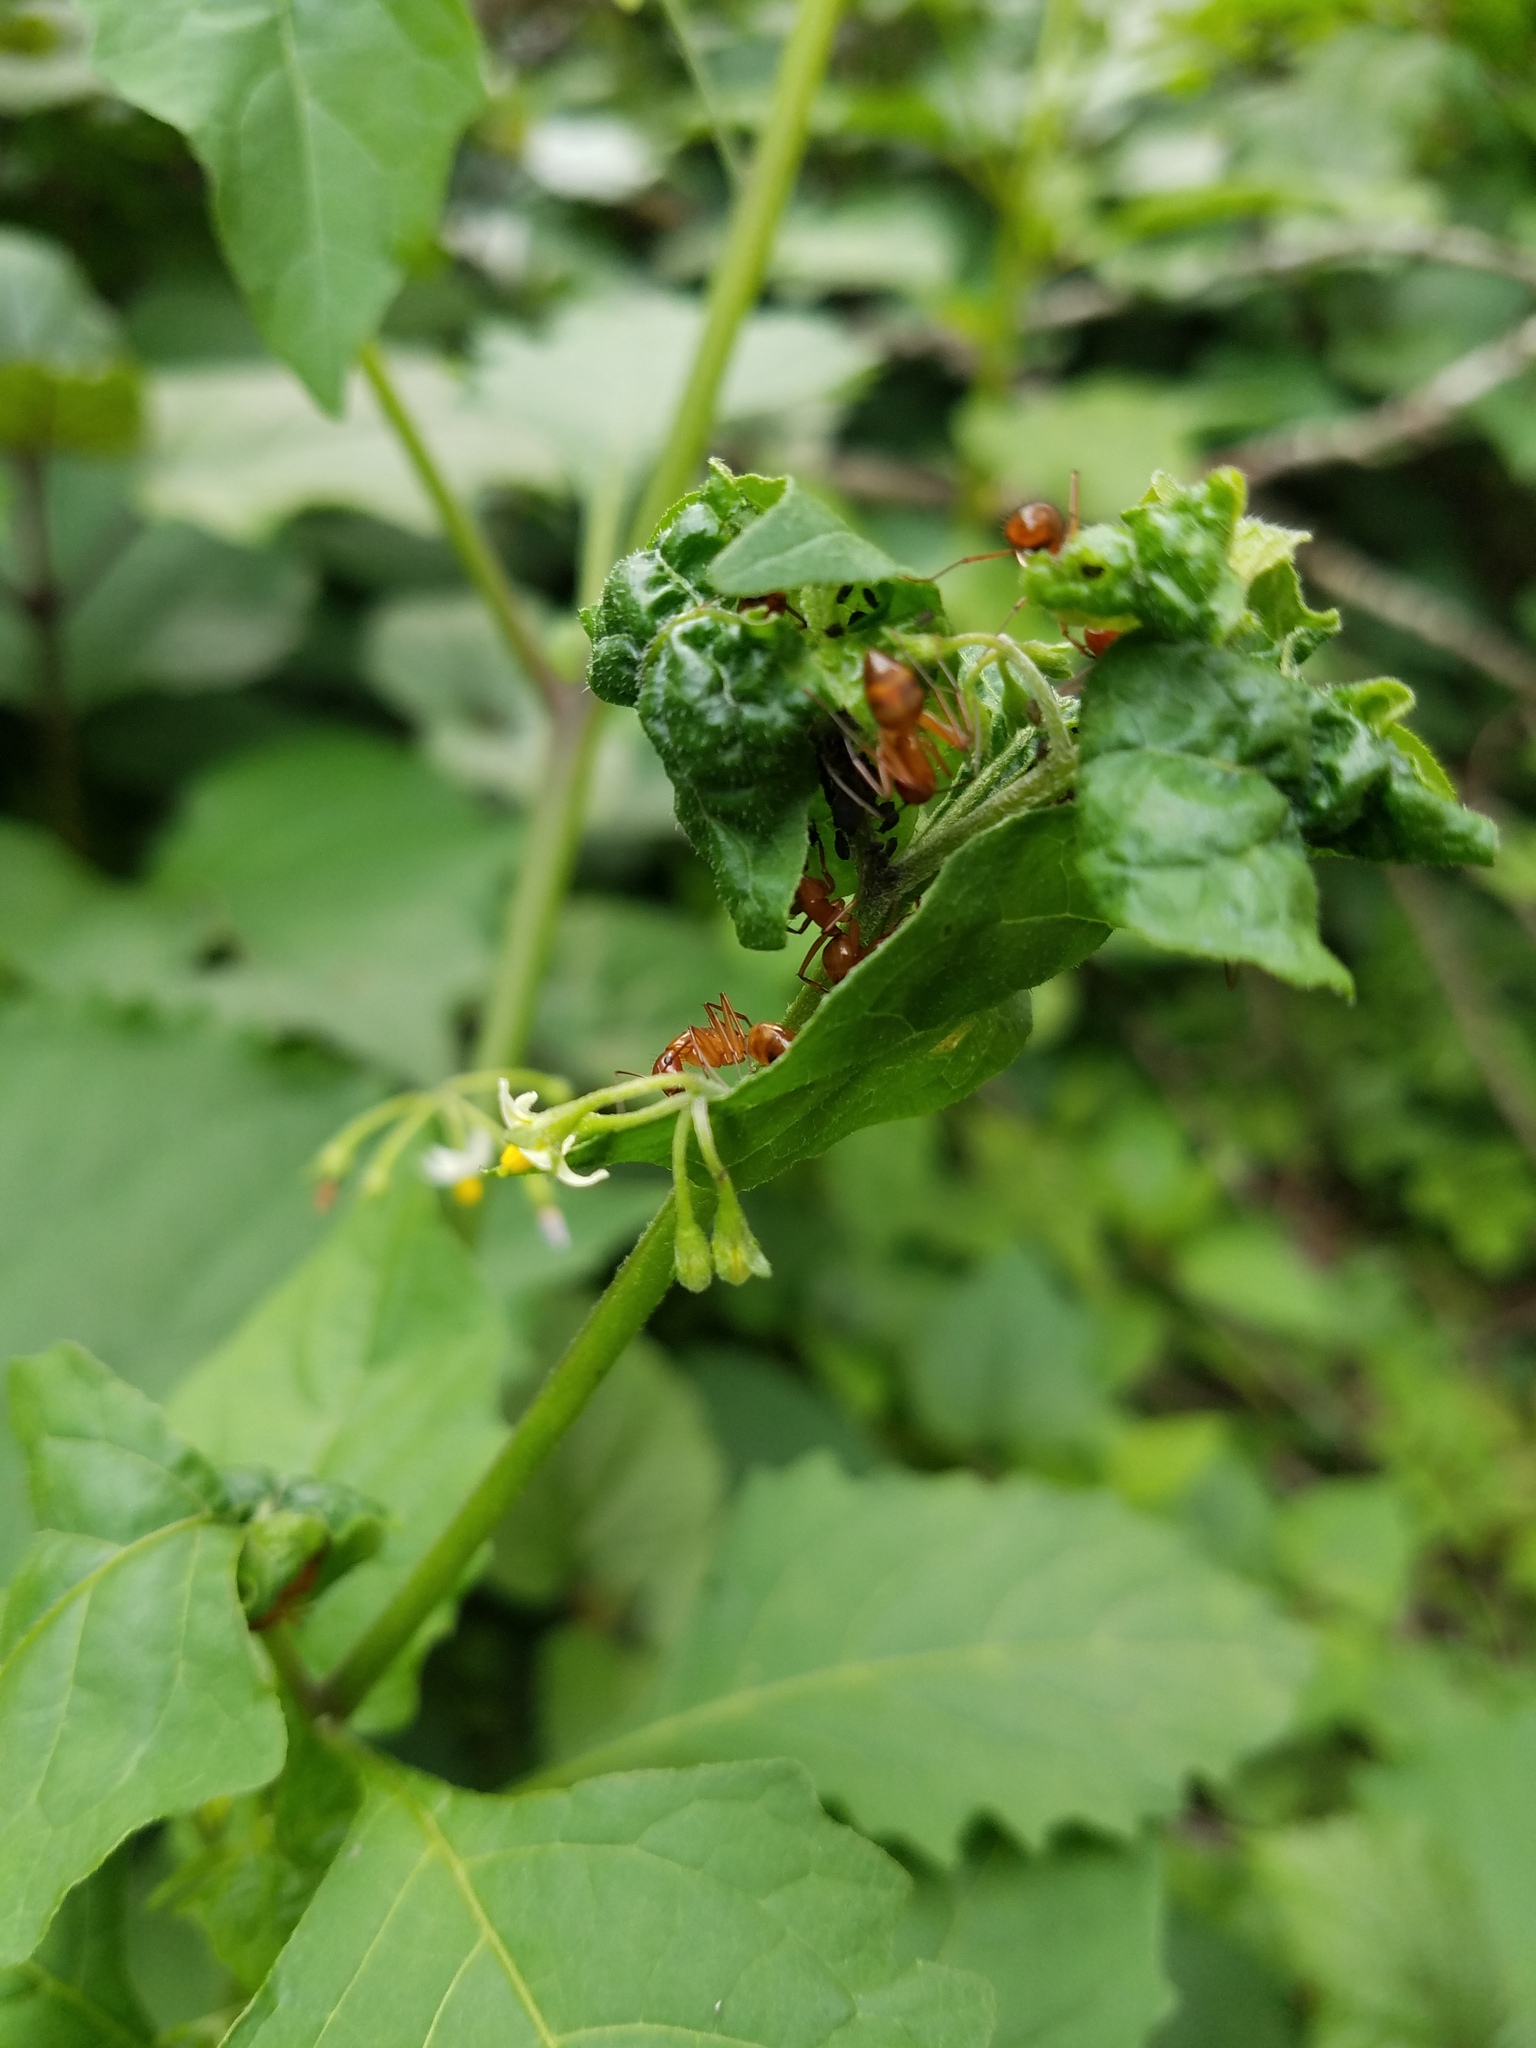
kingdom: Animalia
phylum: Arthropoda
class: Insecta
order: Hymenoptera
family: Formicidae
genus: Camponotus
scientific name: Camponotus castaneus
